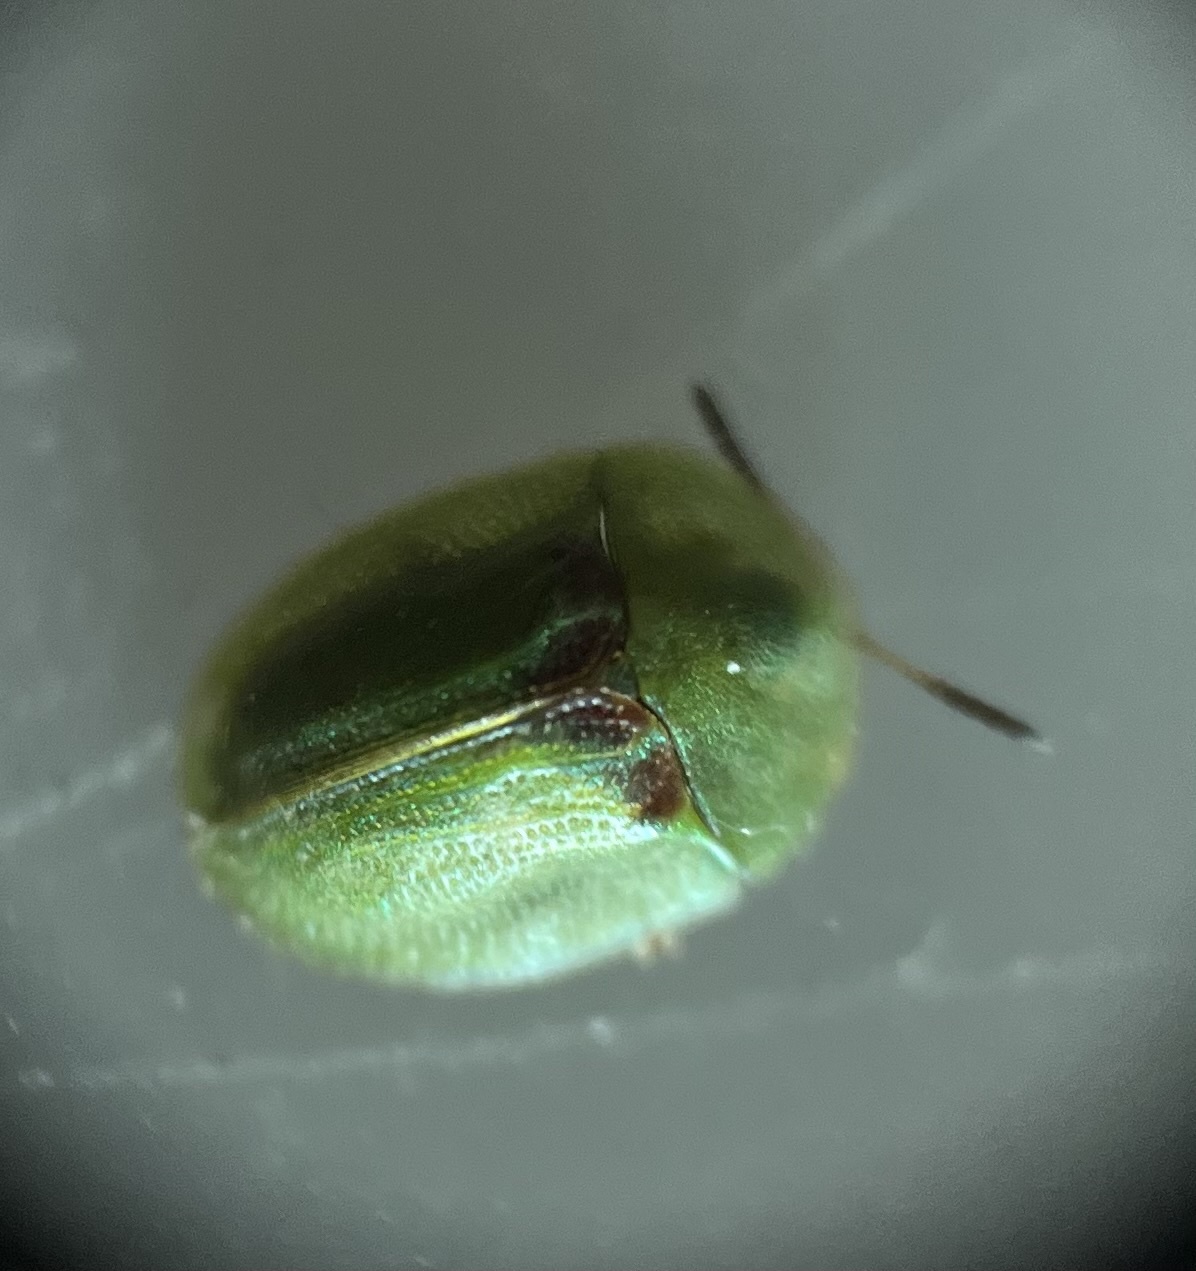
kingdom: Animalia
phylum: Arthropoda
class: Insecta
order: Coleoptera
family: Chrysomelidae
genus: Cassida
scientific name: Cassida prasina
